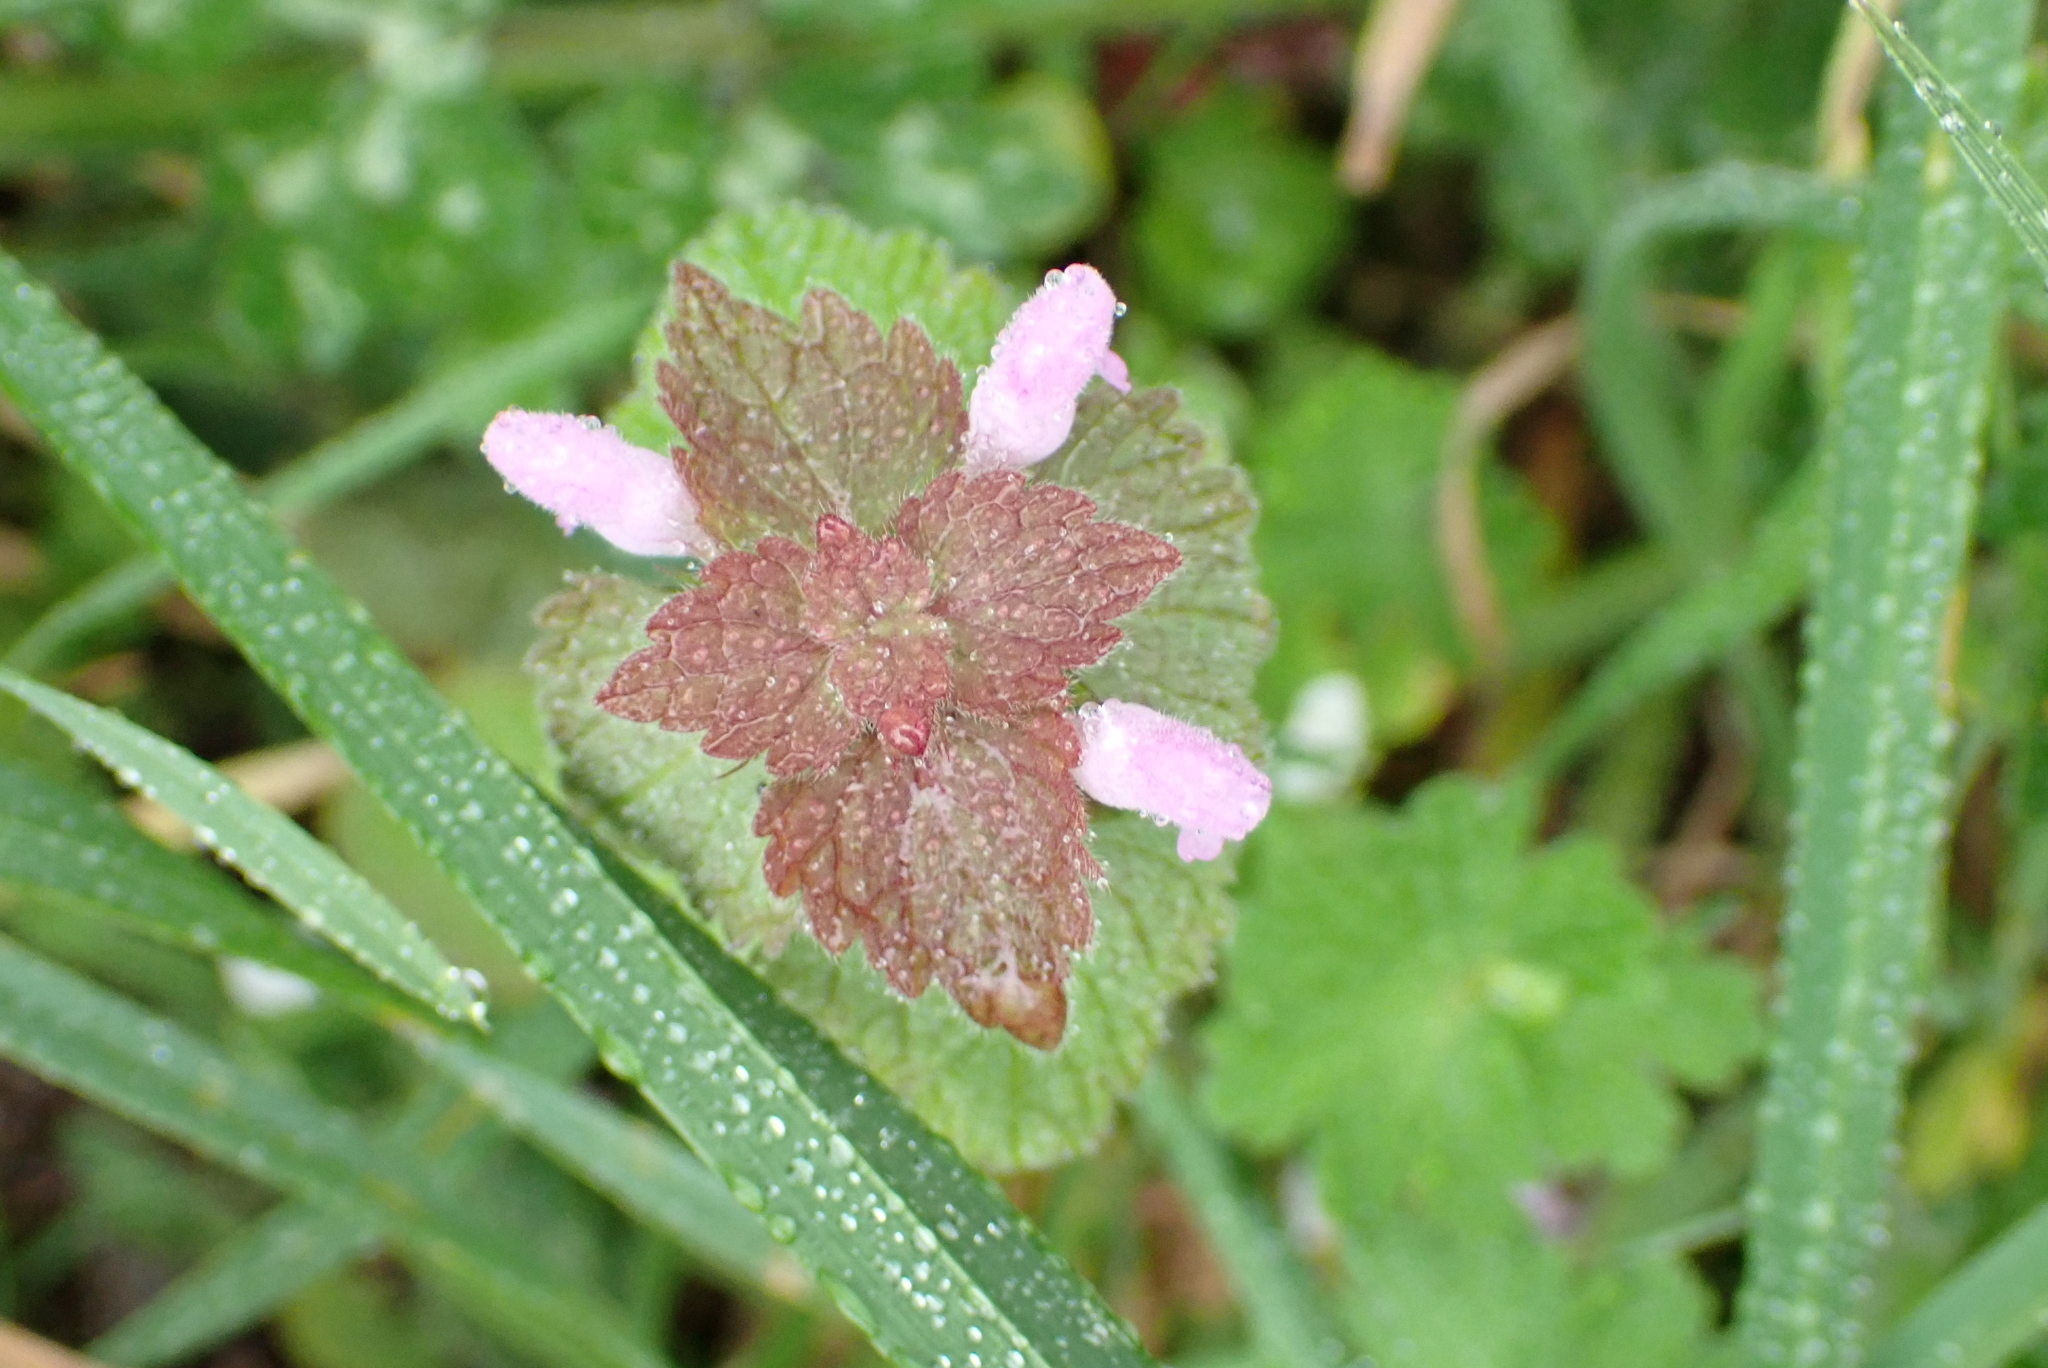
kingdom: Plantae
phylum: Tracheophyta
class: Magnoliopsida
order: Lamiales
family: Lamiaceae
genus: Lamium
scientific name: Lamium purpureum
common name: Red dead-nettle
